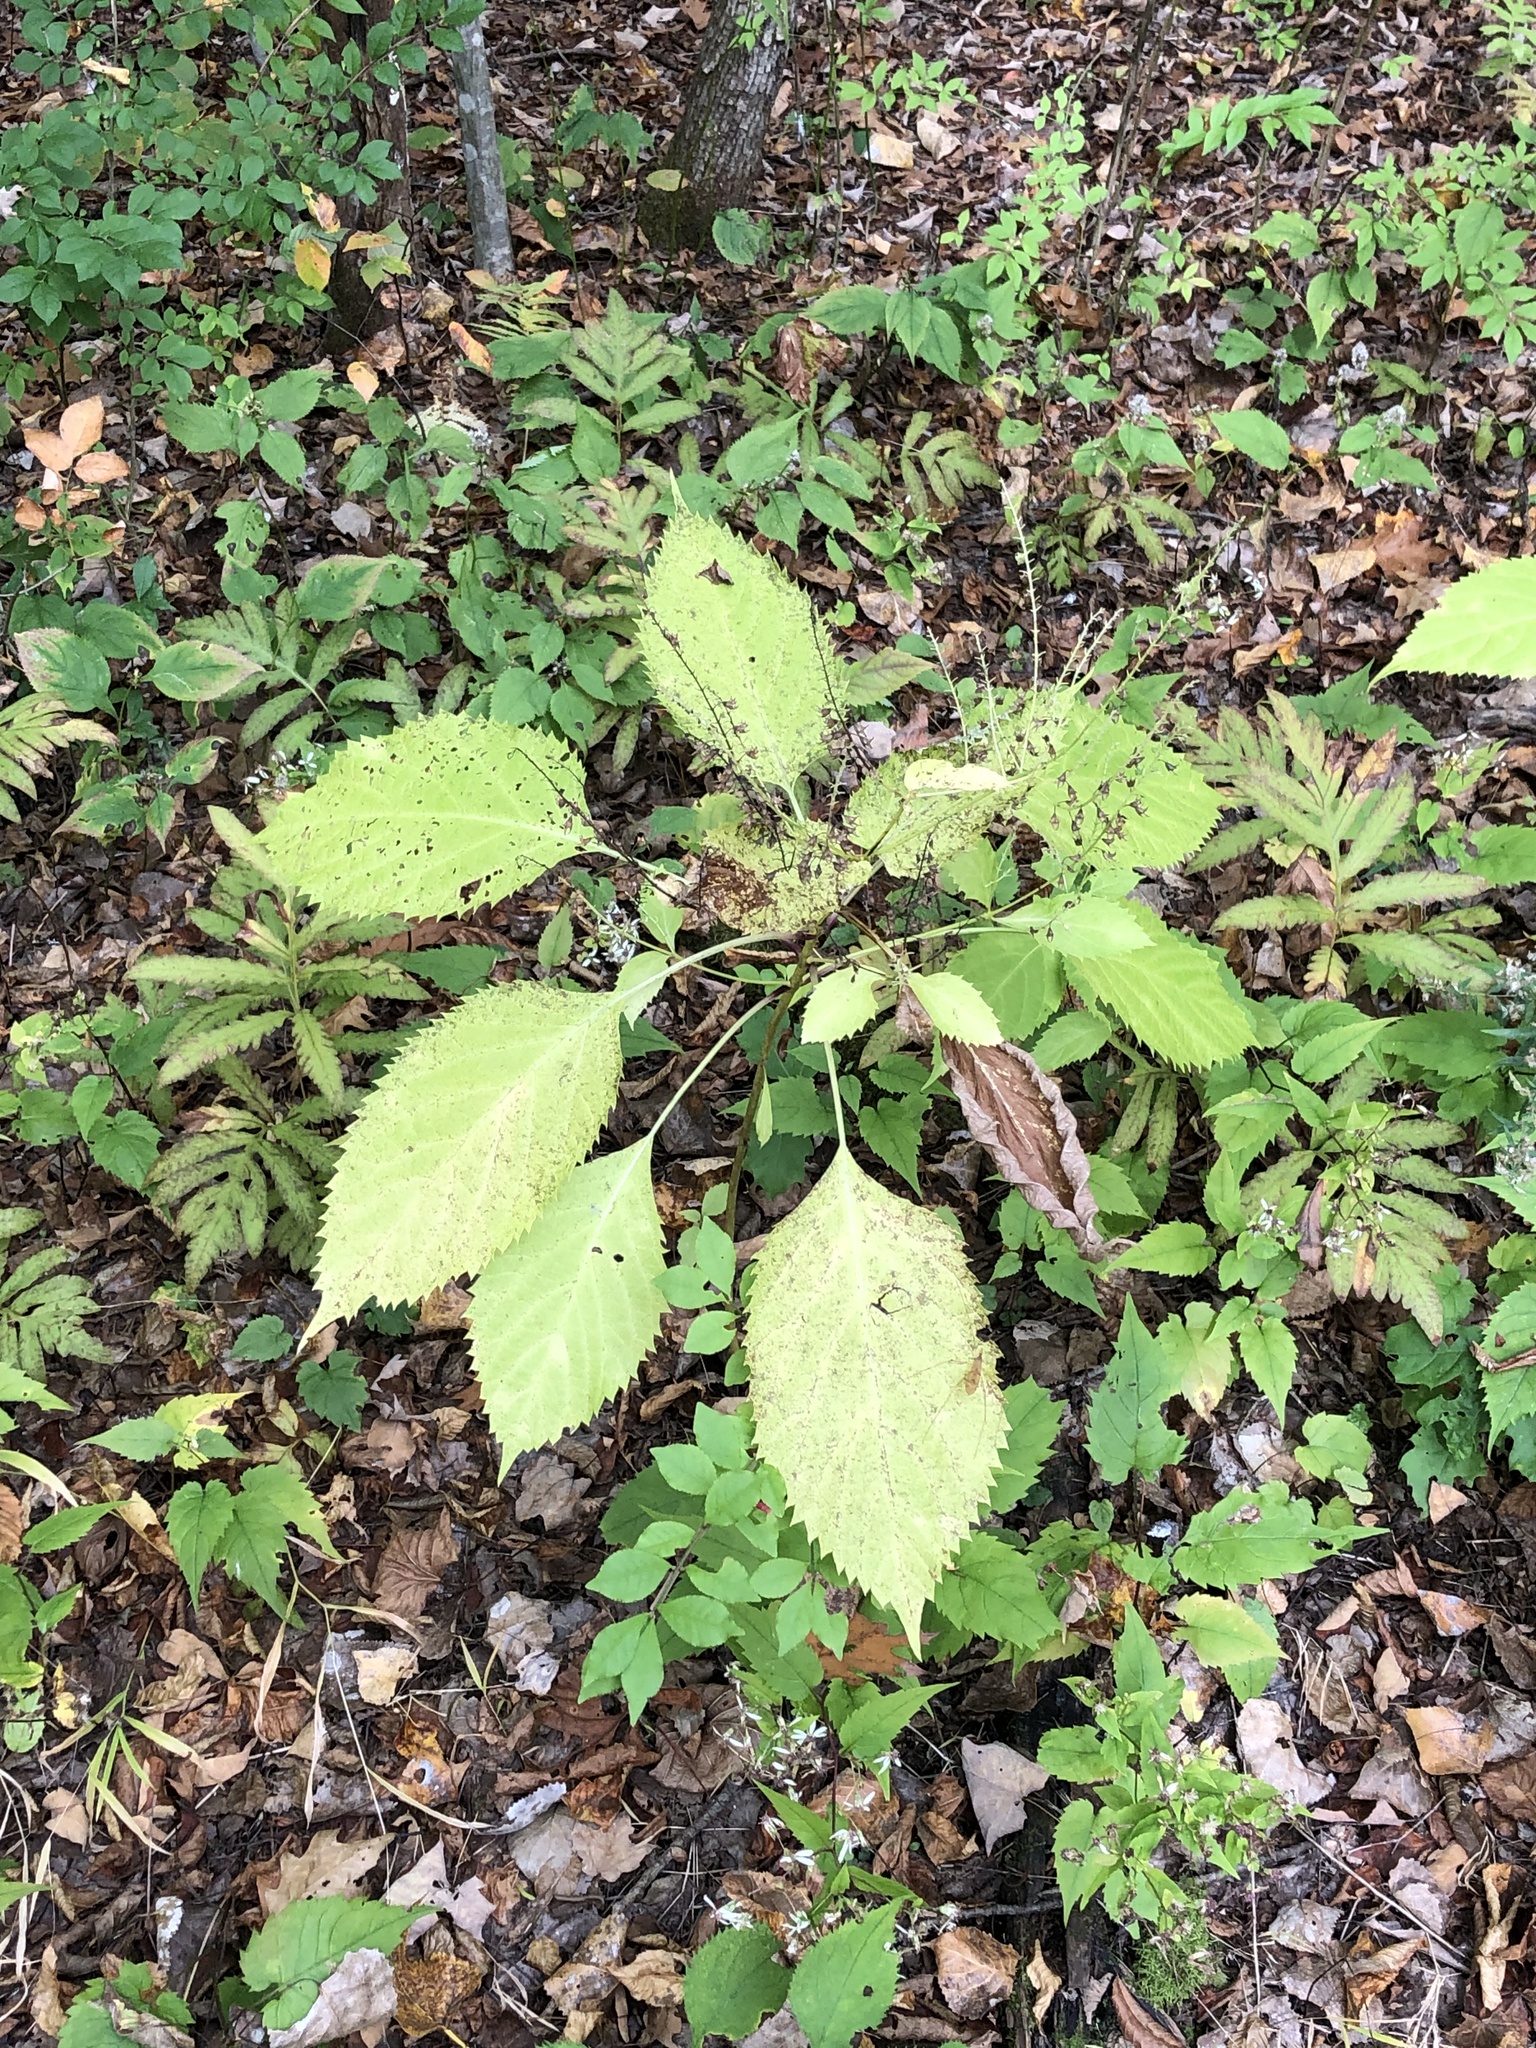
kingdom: Plantae
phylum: Tracheophyta
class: Magnoliopsida
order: Lamiales
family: Lamiaceae
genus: Collinsonia
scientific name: Collinsonia canadensis
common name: Northern horsebalm
